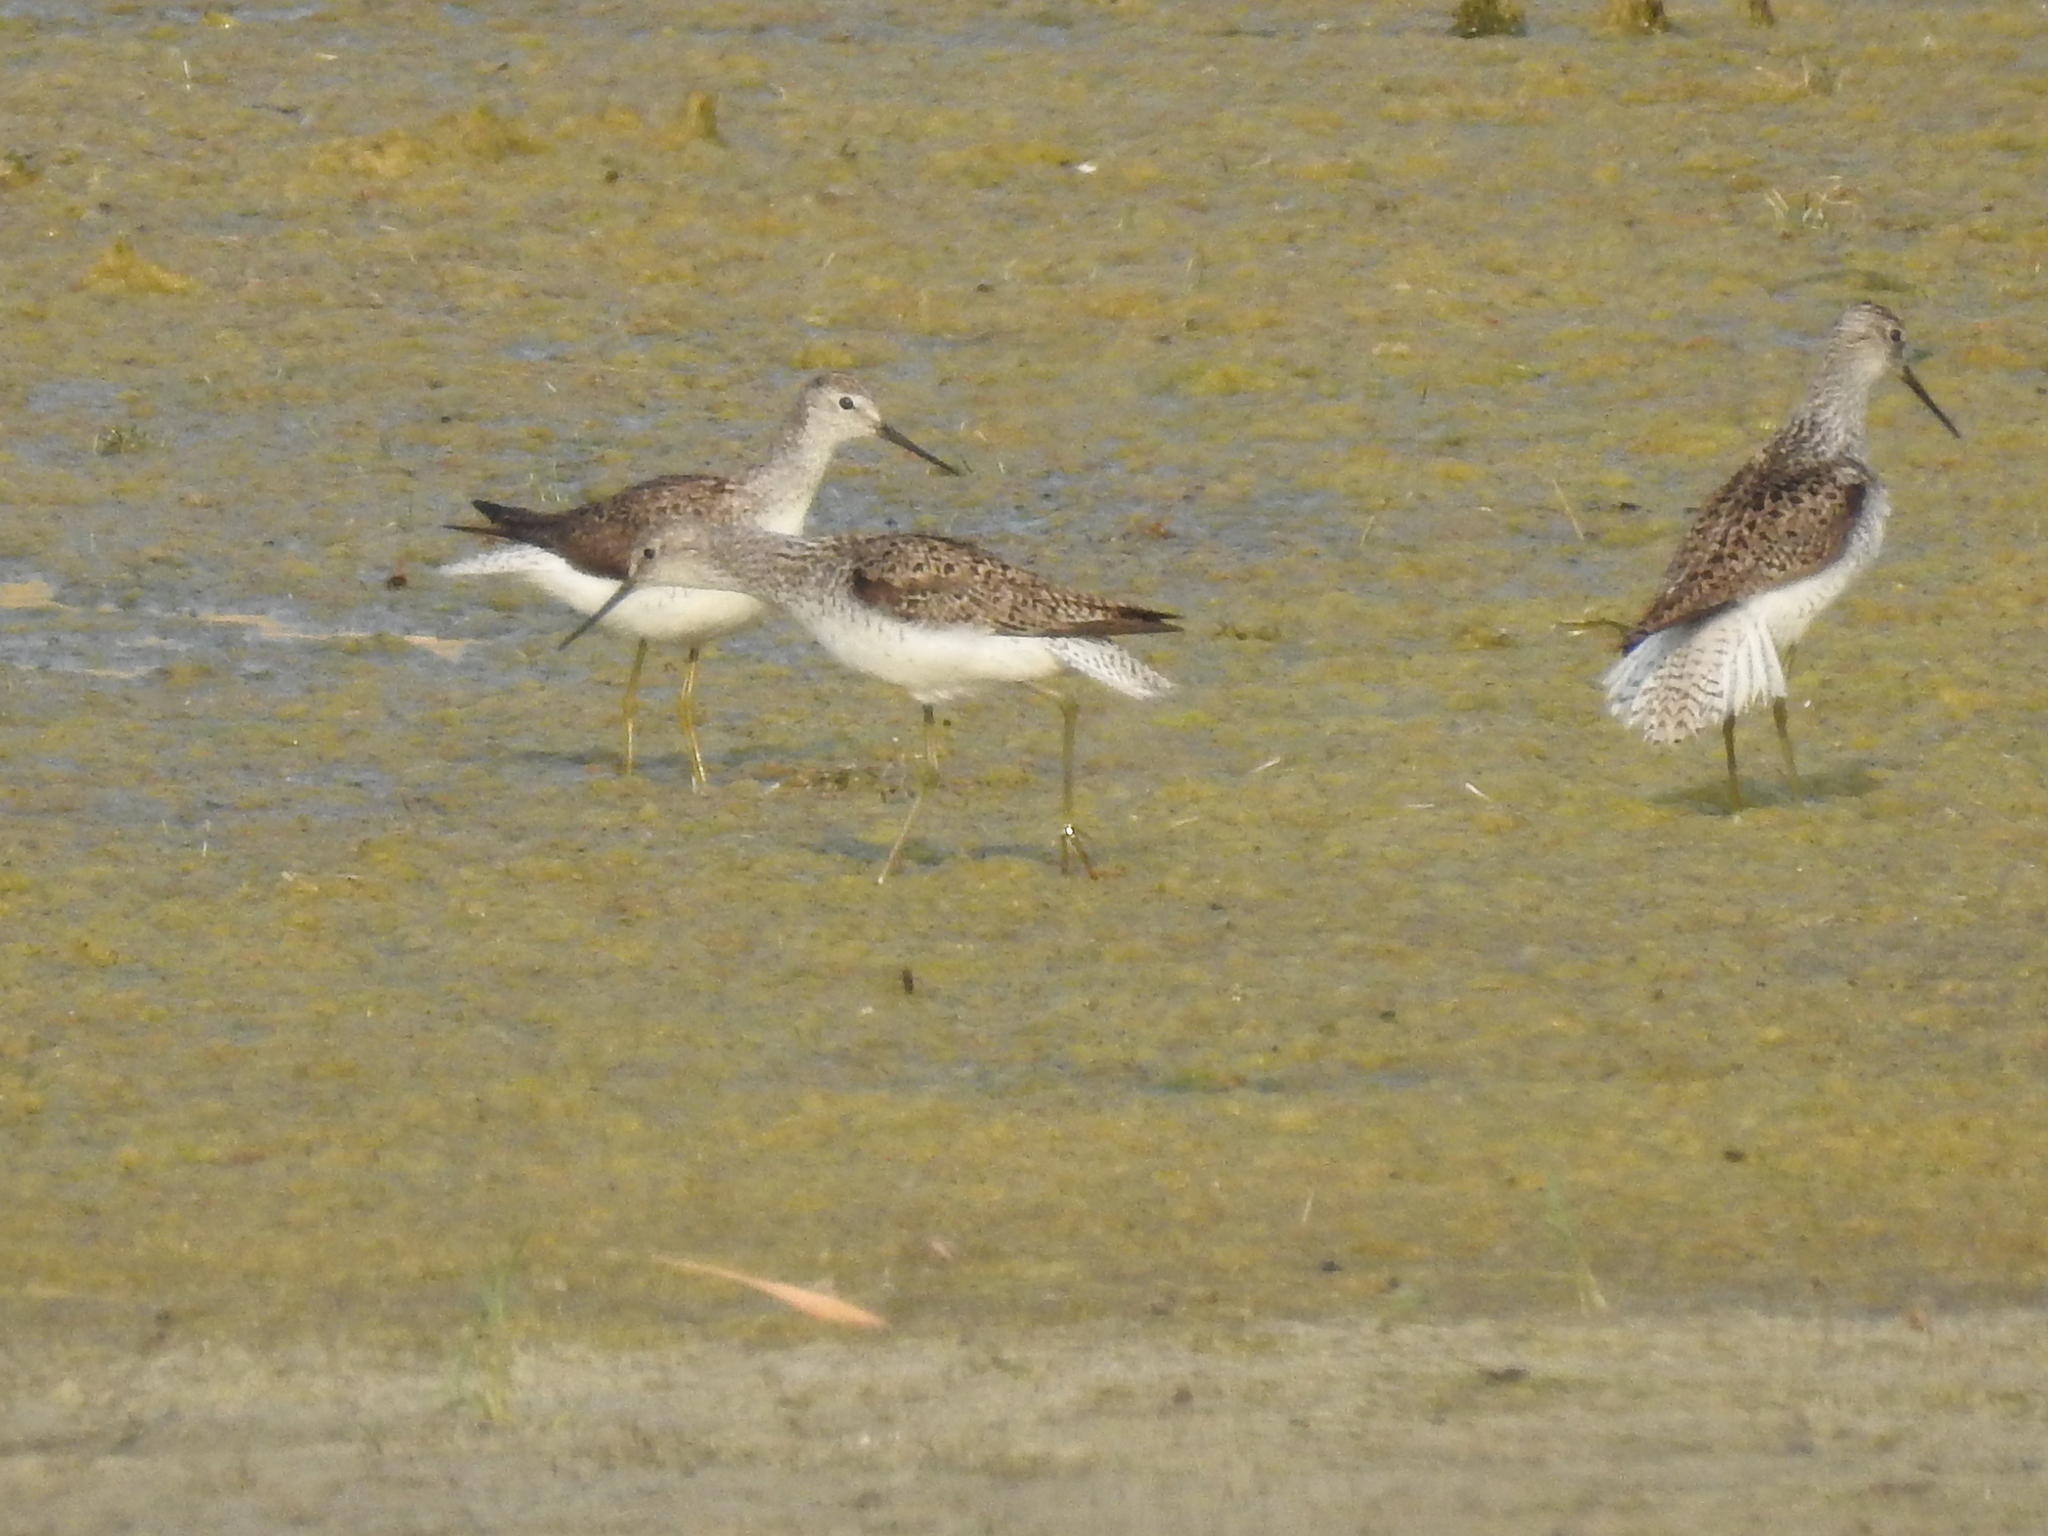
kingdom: Animalia
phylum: Chordata
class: Aves
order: Charadriiformes
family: Scolopacidae
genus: Tringa
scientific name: Tringa stagnatilis
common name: Marsh sandpiper
